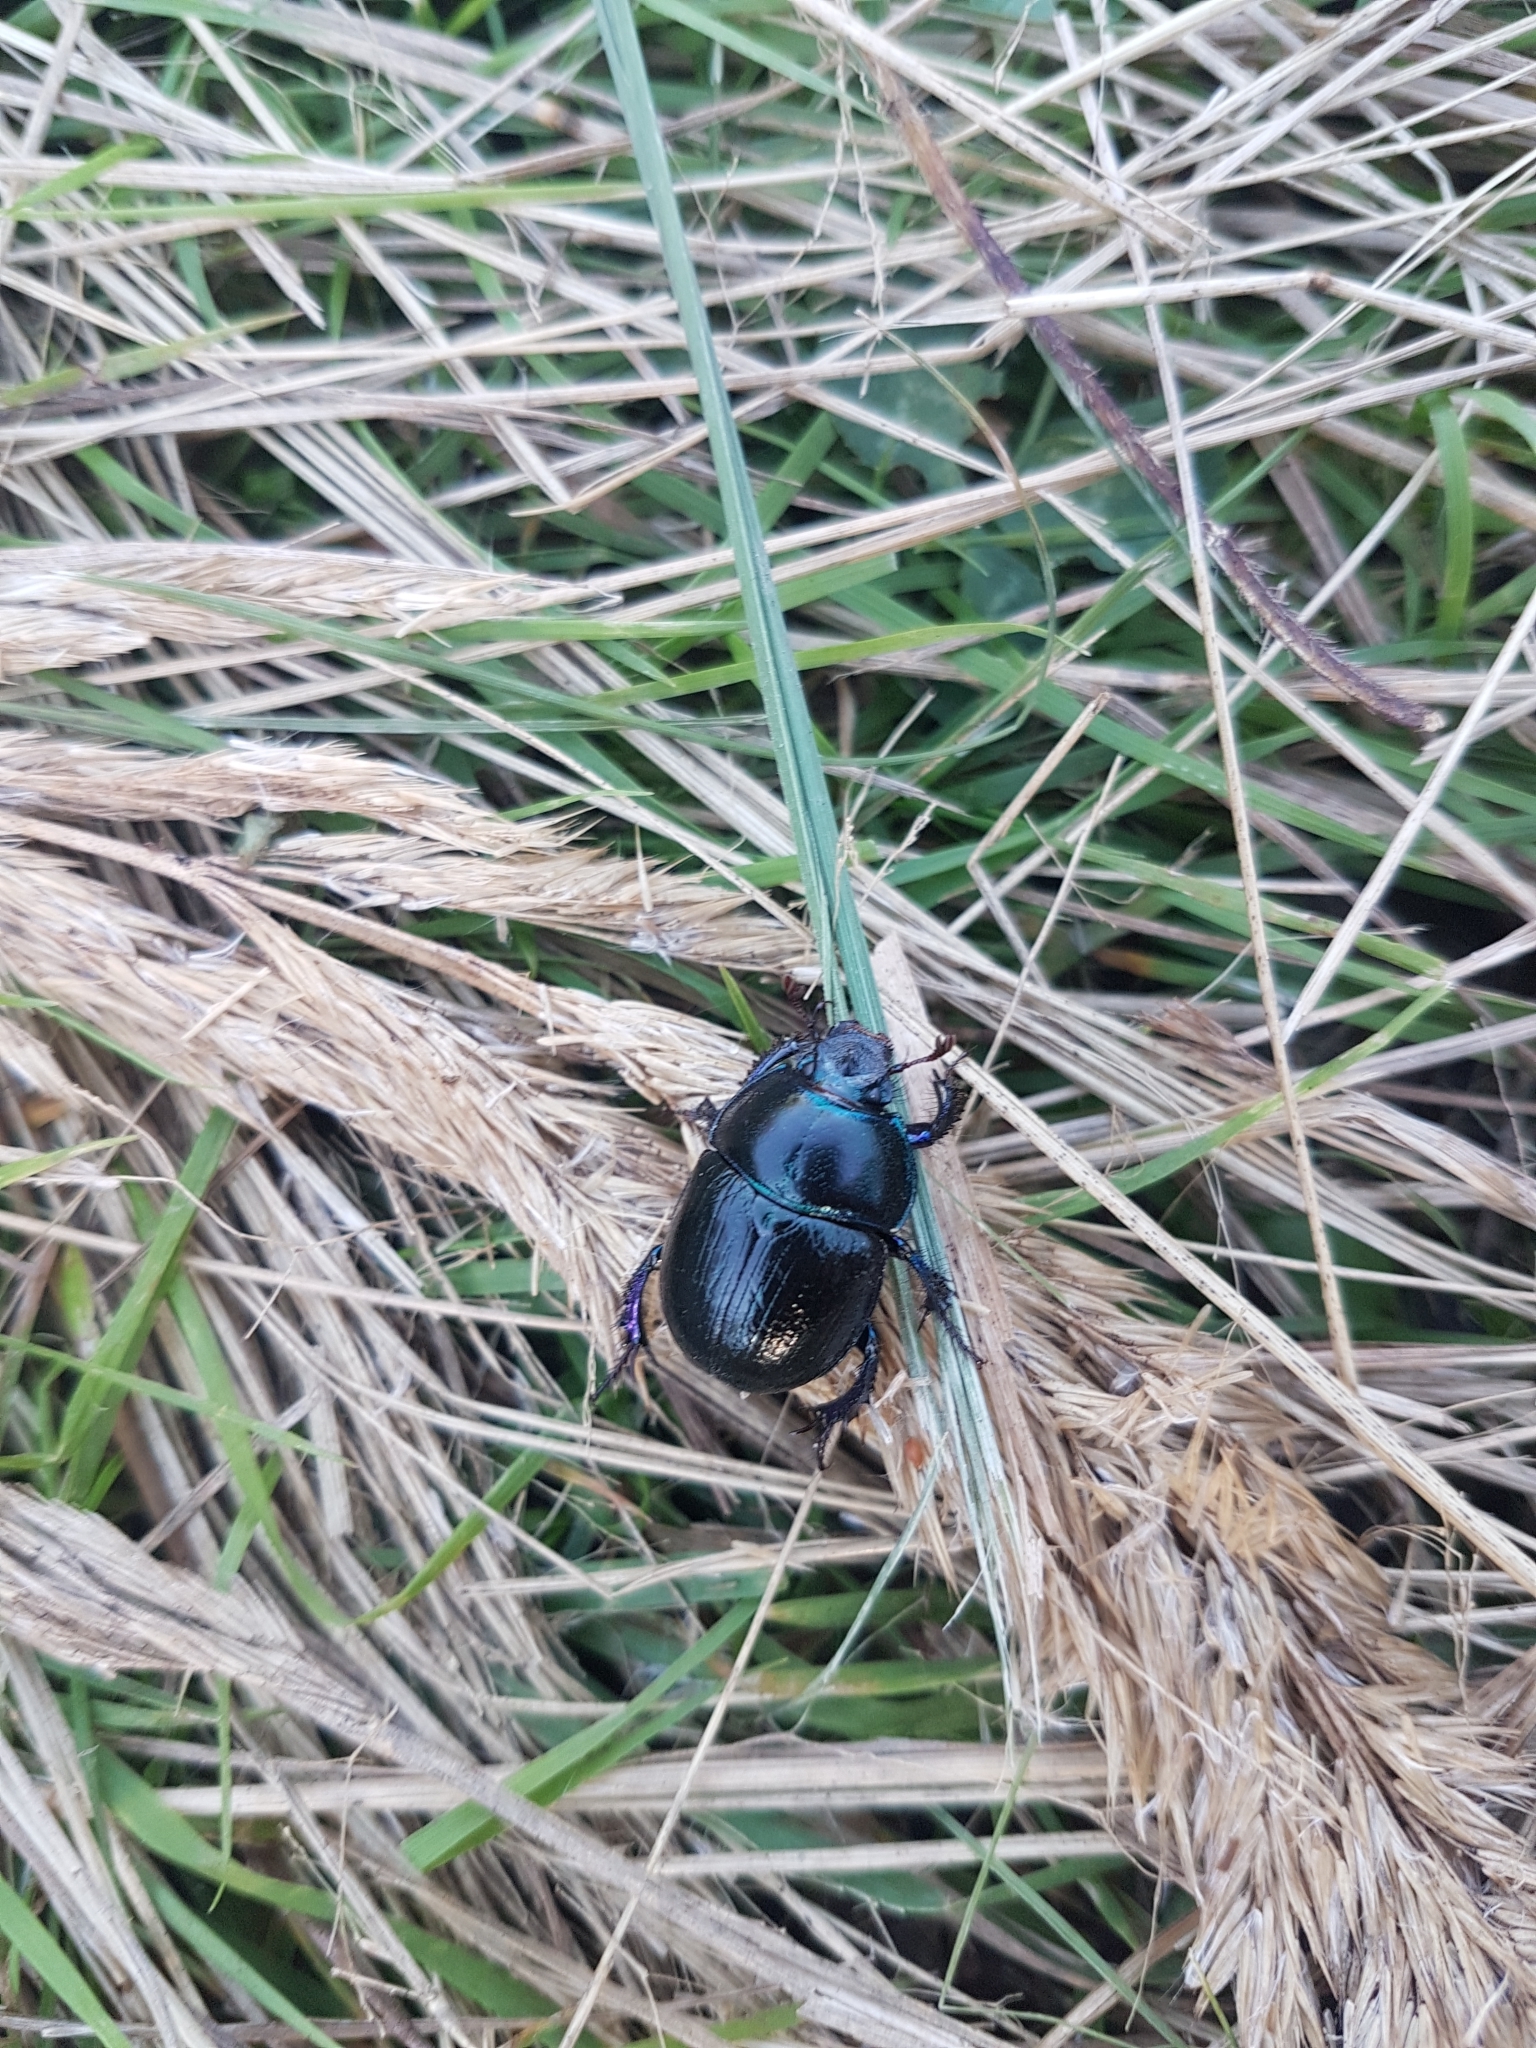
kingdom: Animalia
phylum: Arthropoda
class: Insecta
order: Coleoptera
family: Geotrupidae
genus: Anoplotrupes
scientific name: Anoplotrupes stercorosus
